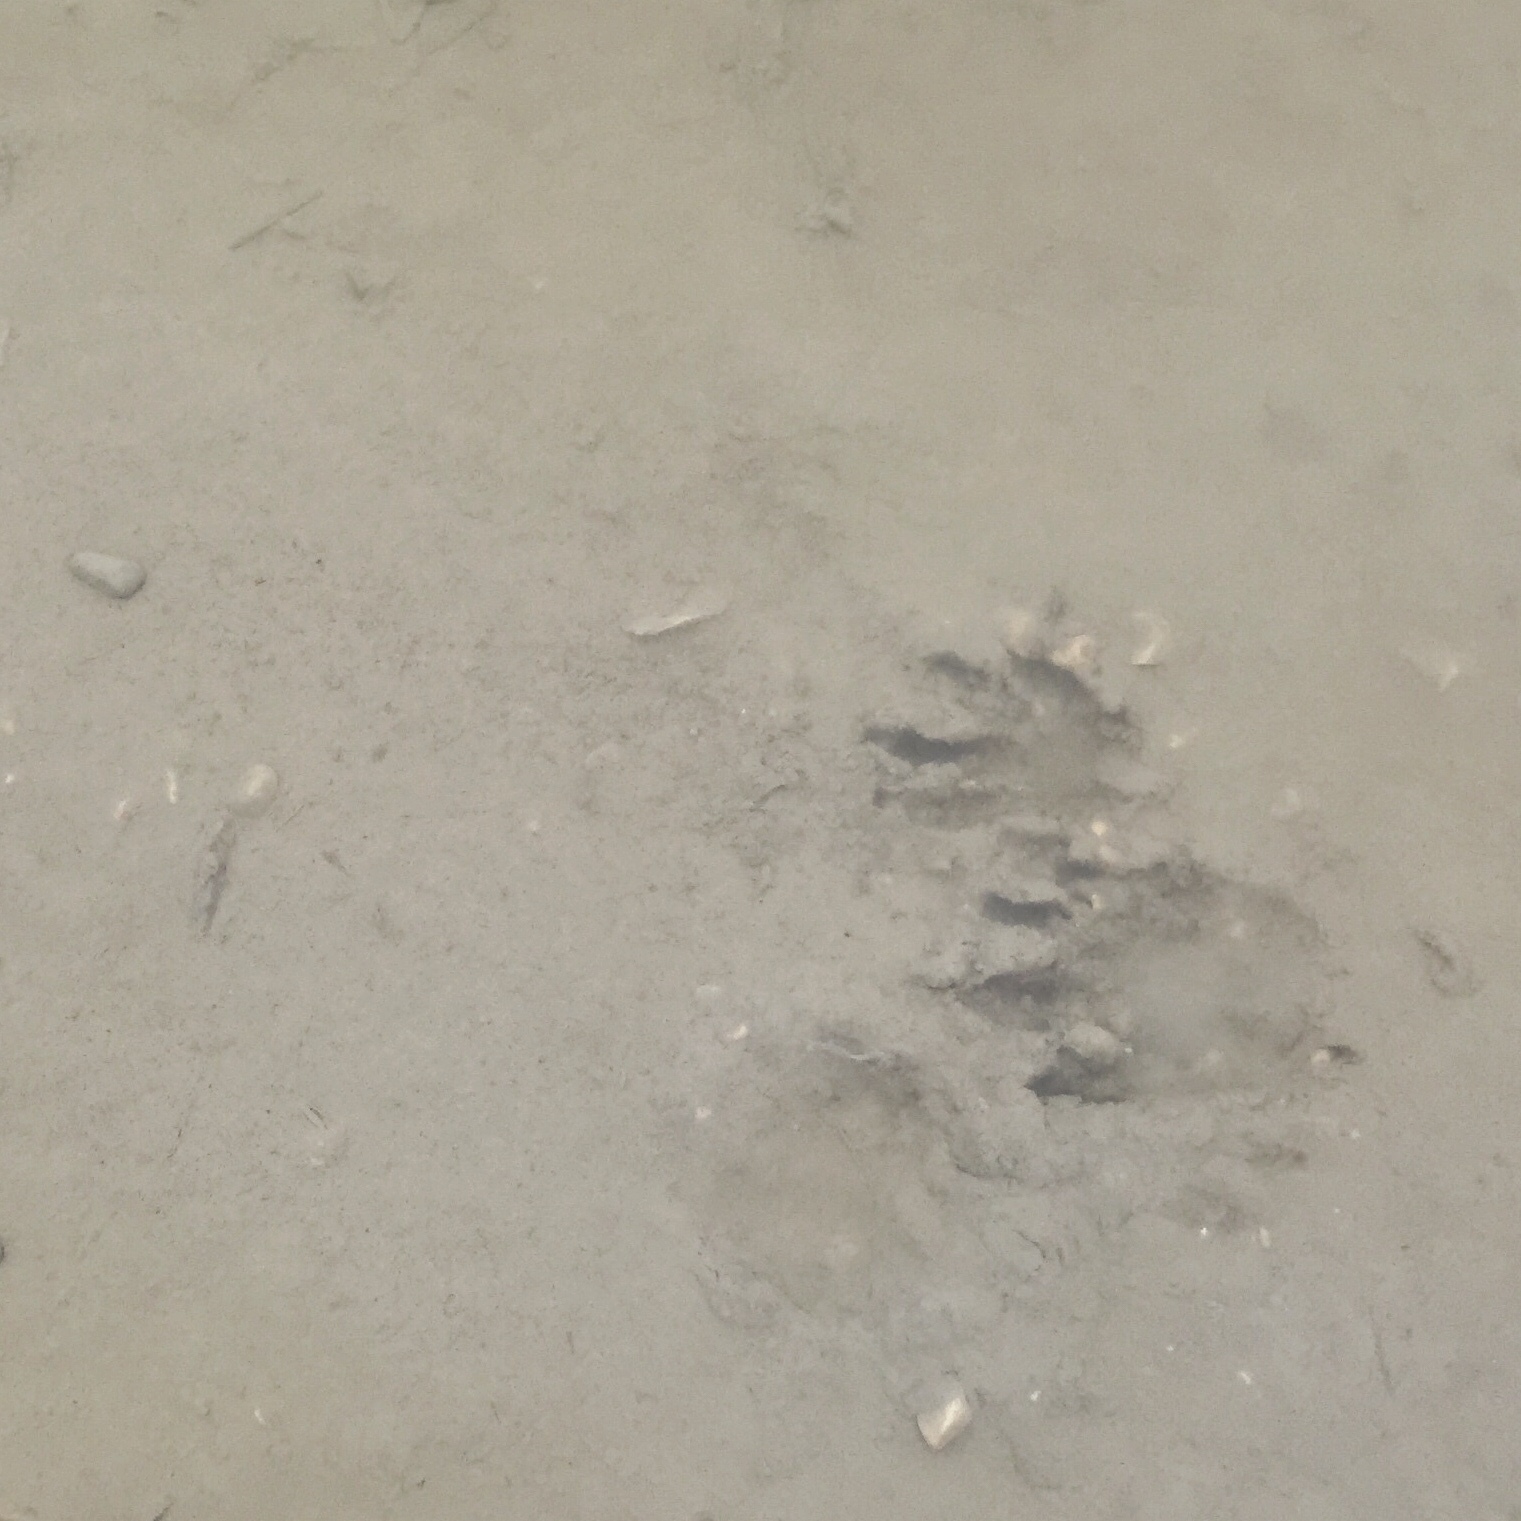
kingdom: Animalia
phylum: Chordata
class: Mammalia
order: Carnivora
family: Procyonidae
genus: Procyon
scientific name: Procyon lotor
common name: Raccoon
